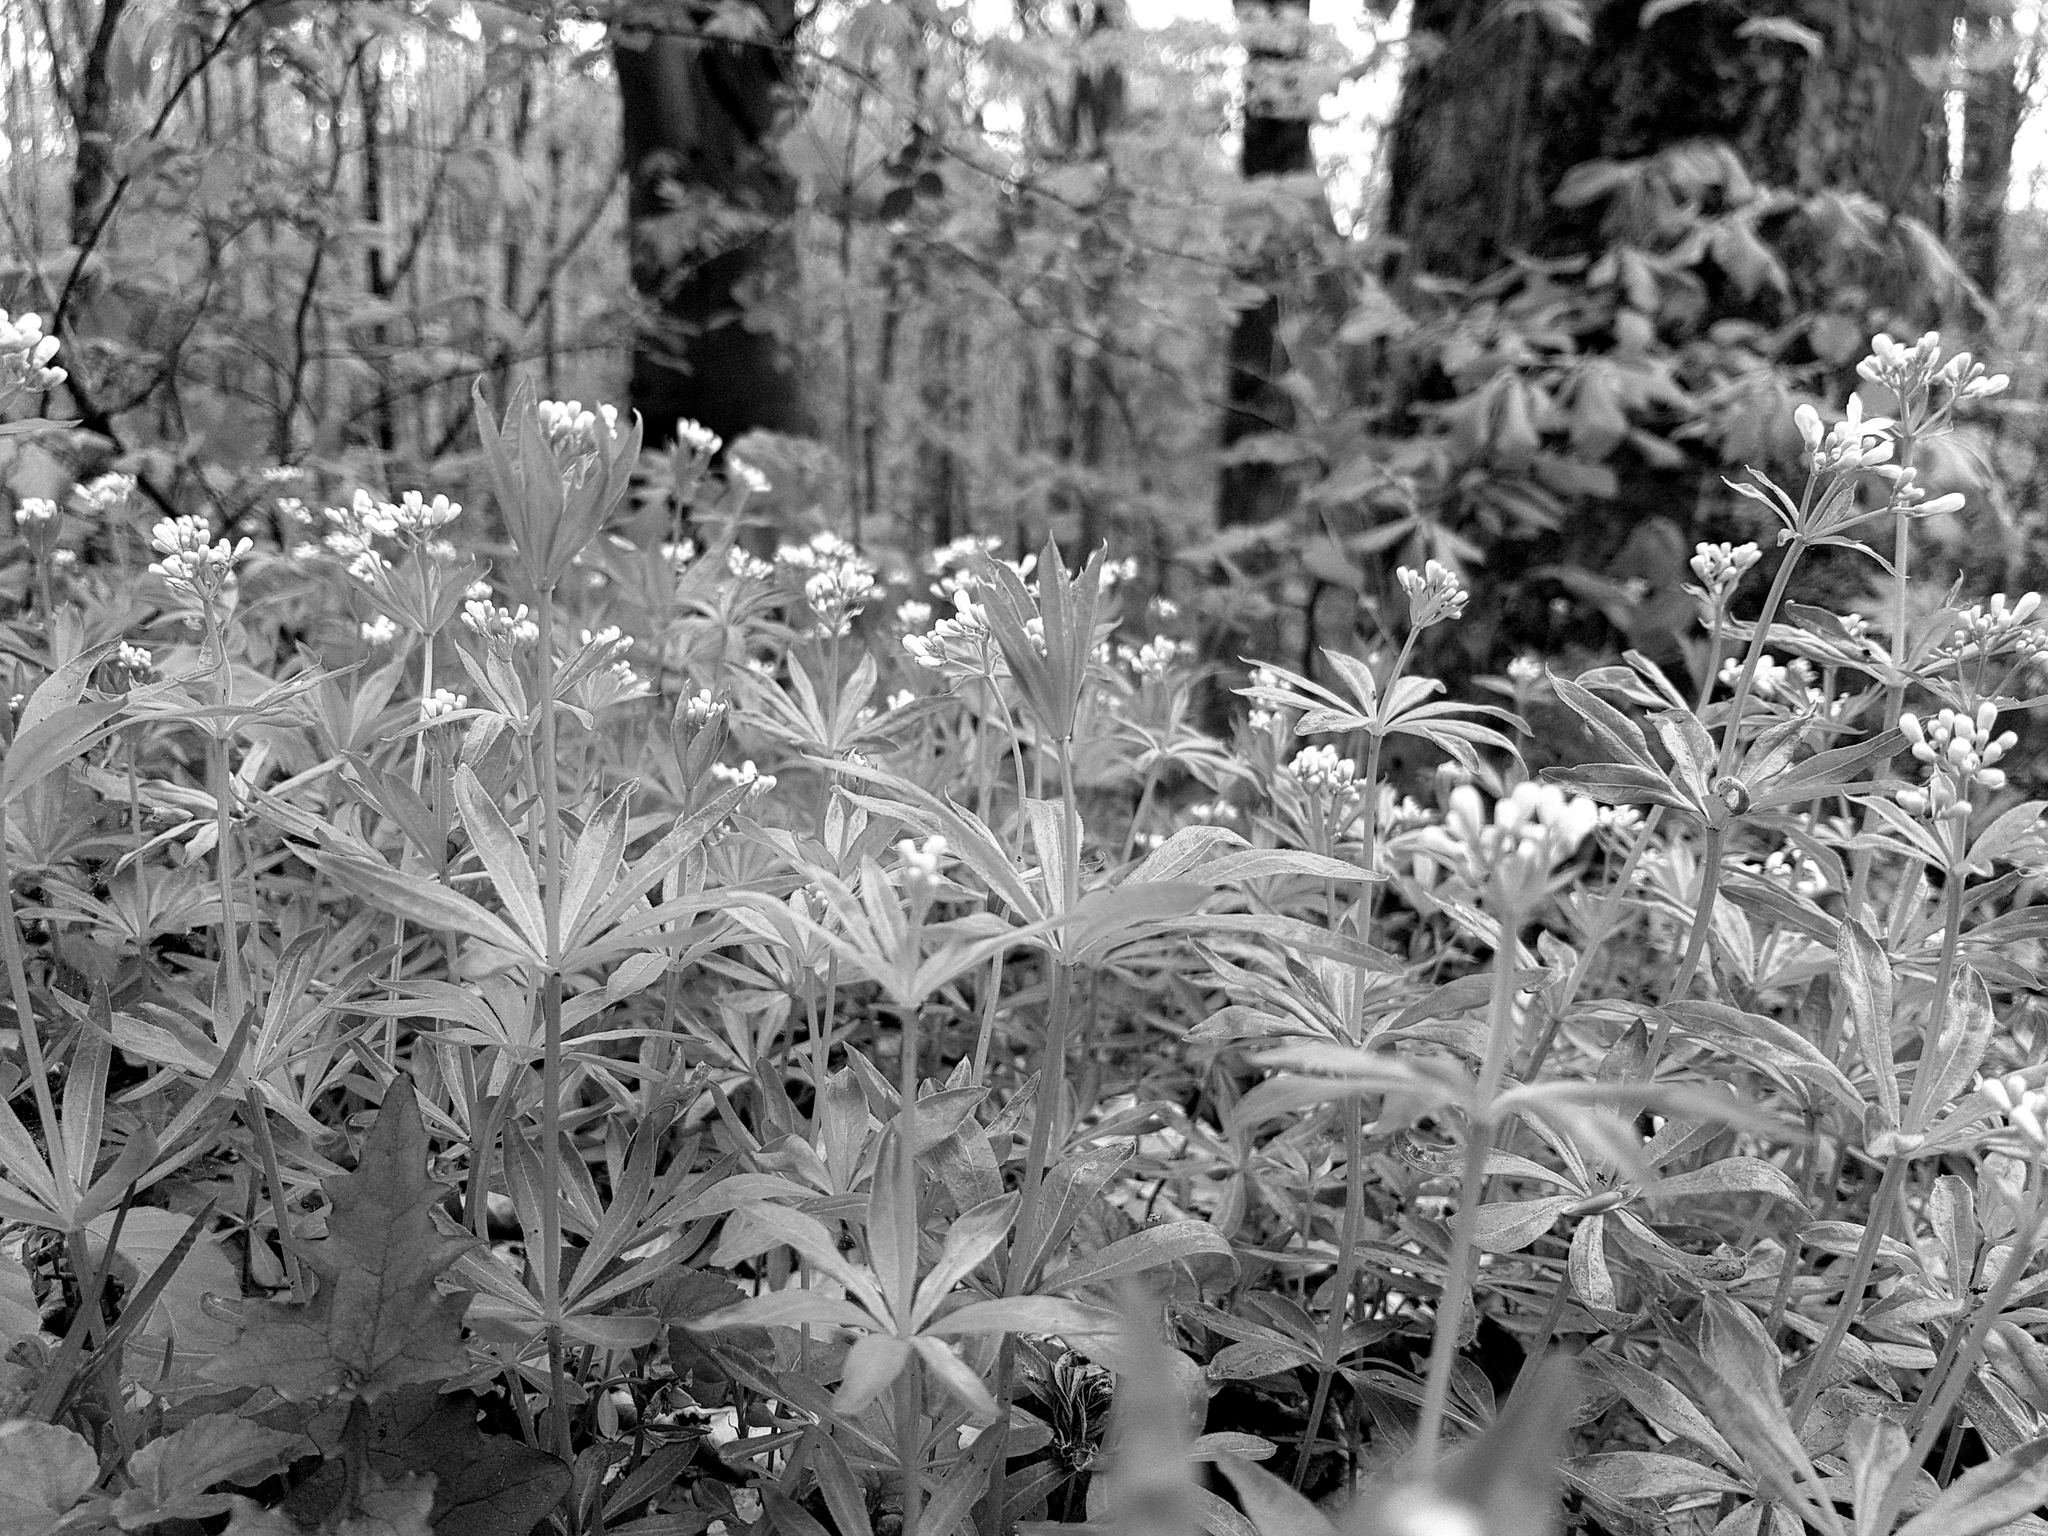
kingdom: Plantae
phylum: Tracheophyta
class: Magnoliopsida
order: Gentianales
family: Rubiaceae
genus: Galium
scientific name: Galium odoratum
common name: Sweet woodruff
